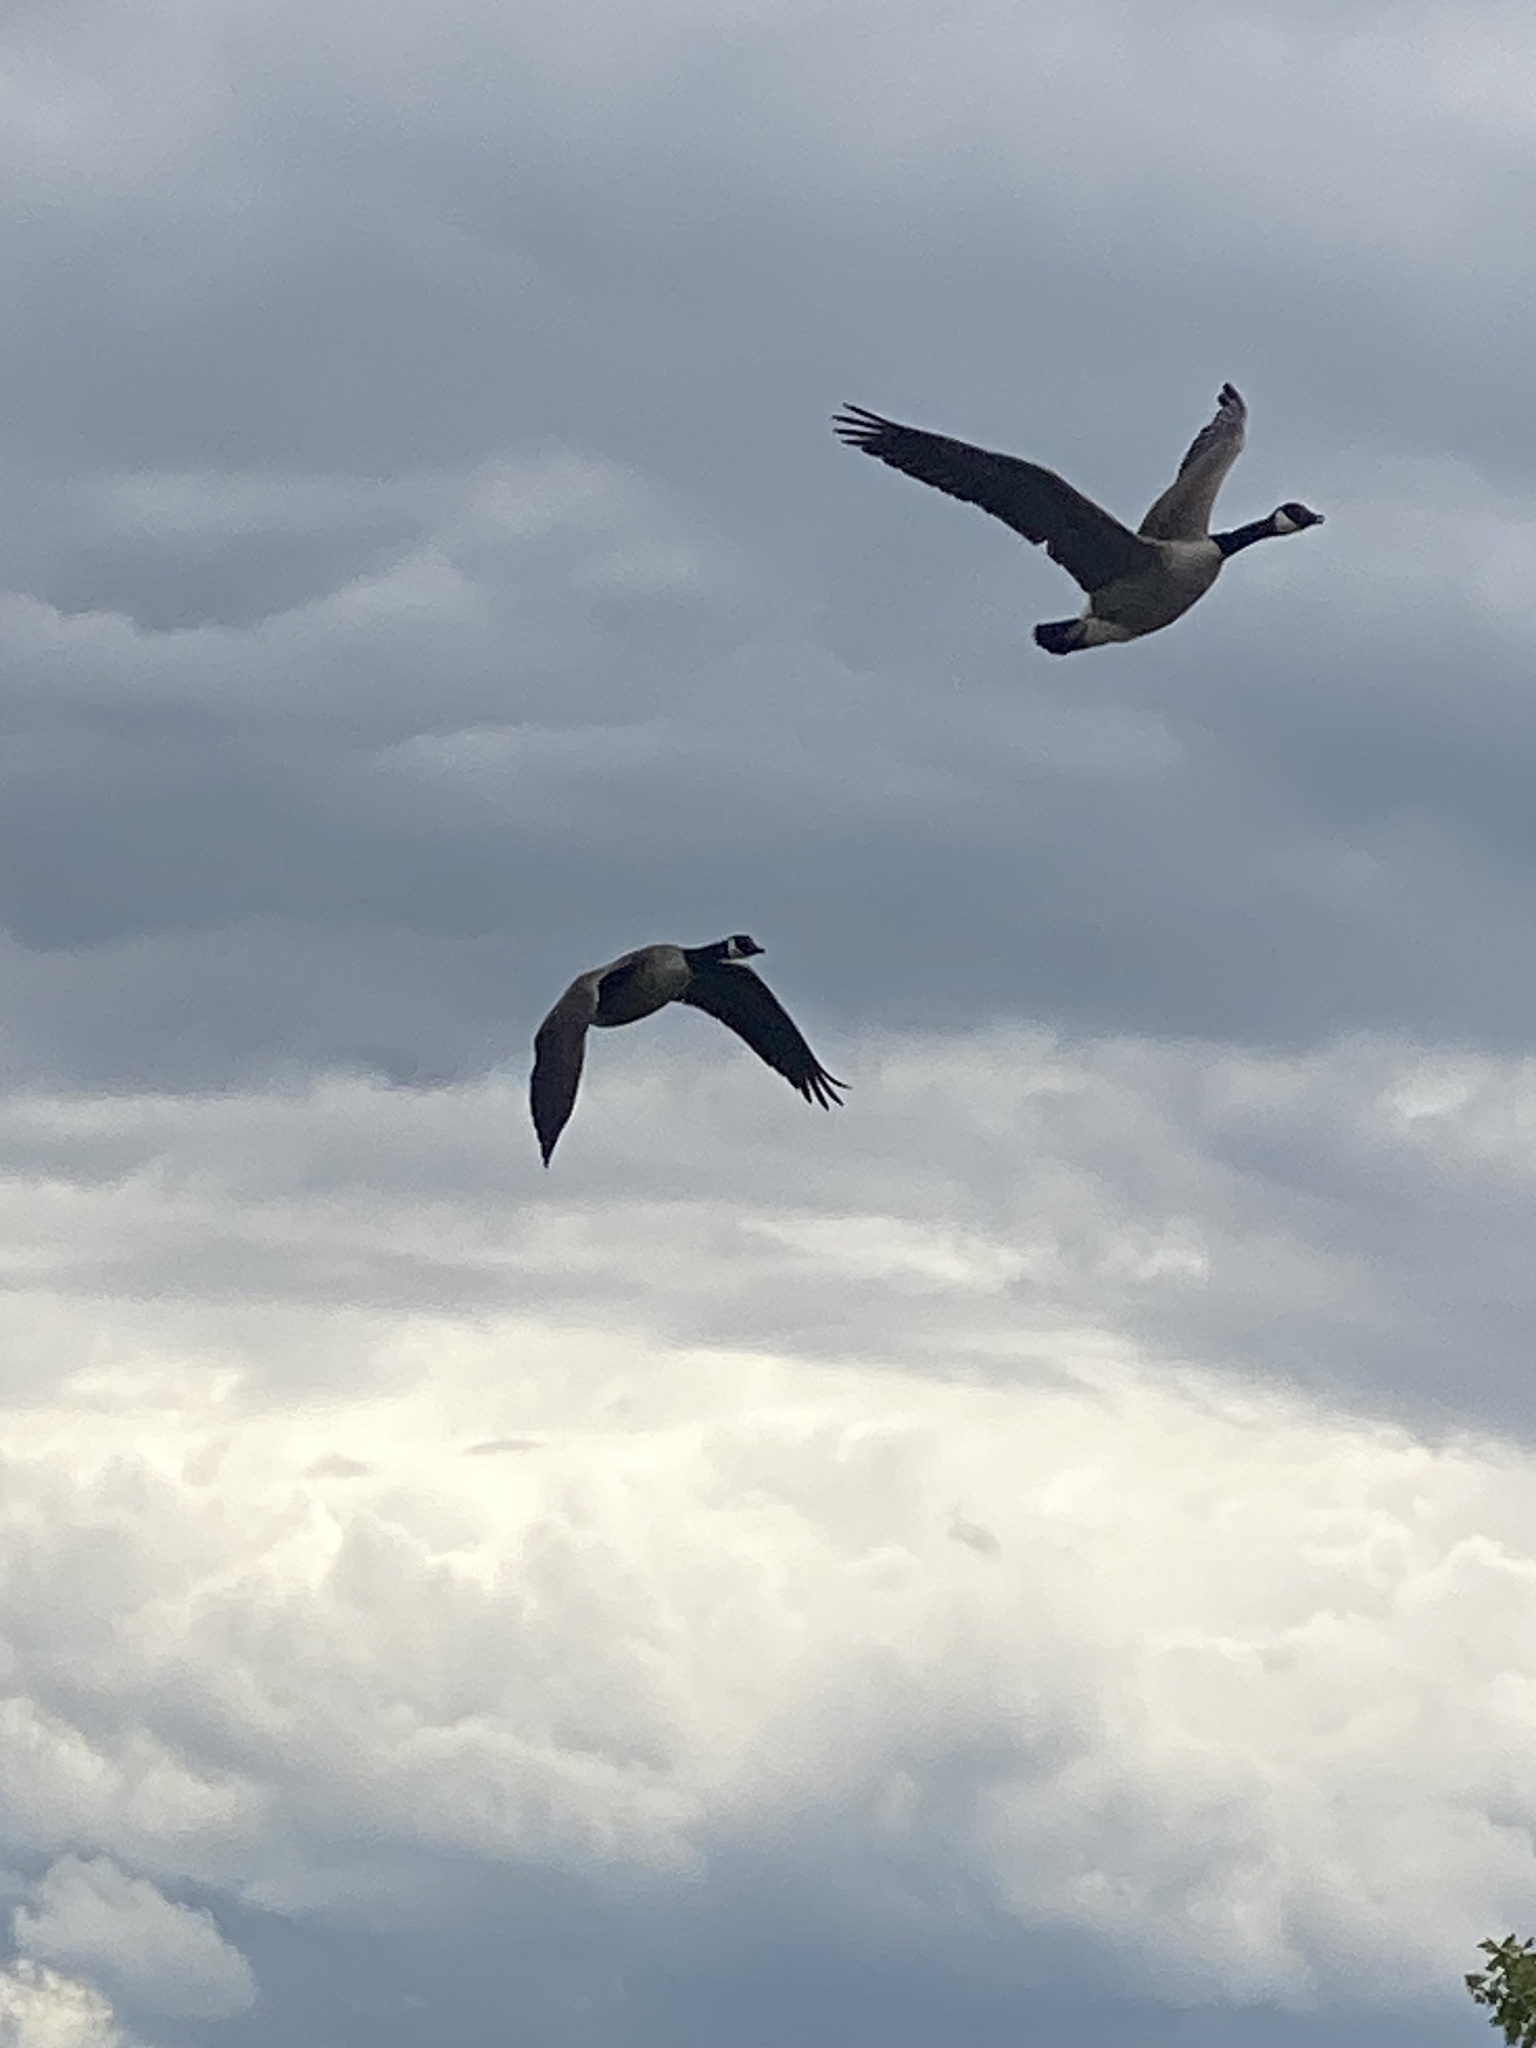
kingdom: Animalia
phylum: Chordata
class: Aves
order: Anseriformes
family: Anatidae
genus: Branta
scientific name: Branta canadensis
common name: Canada goose
